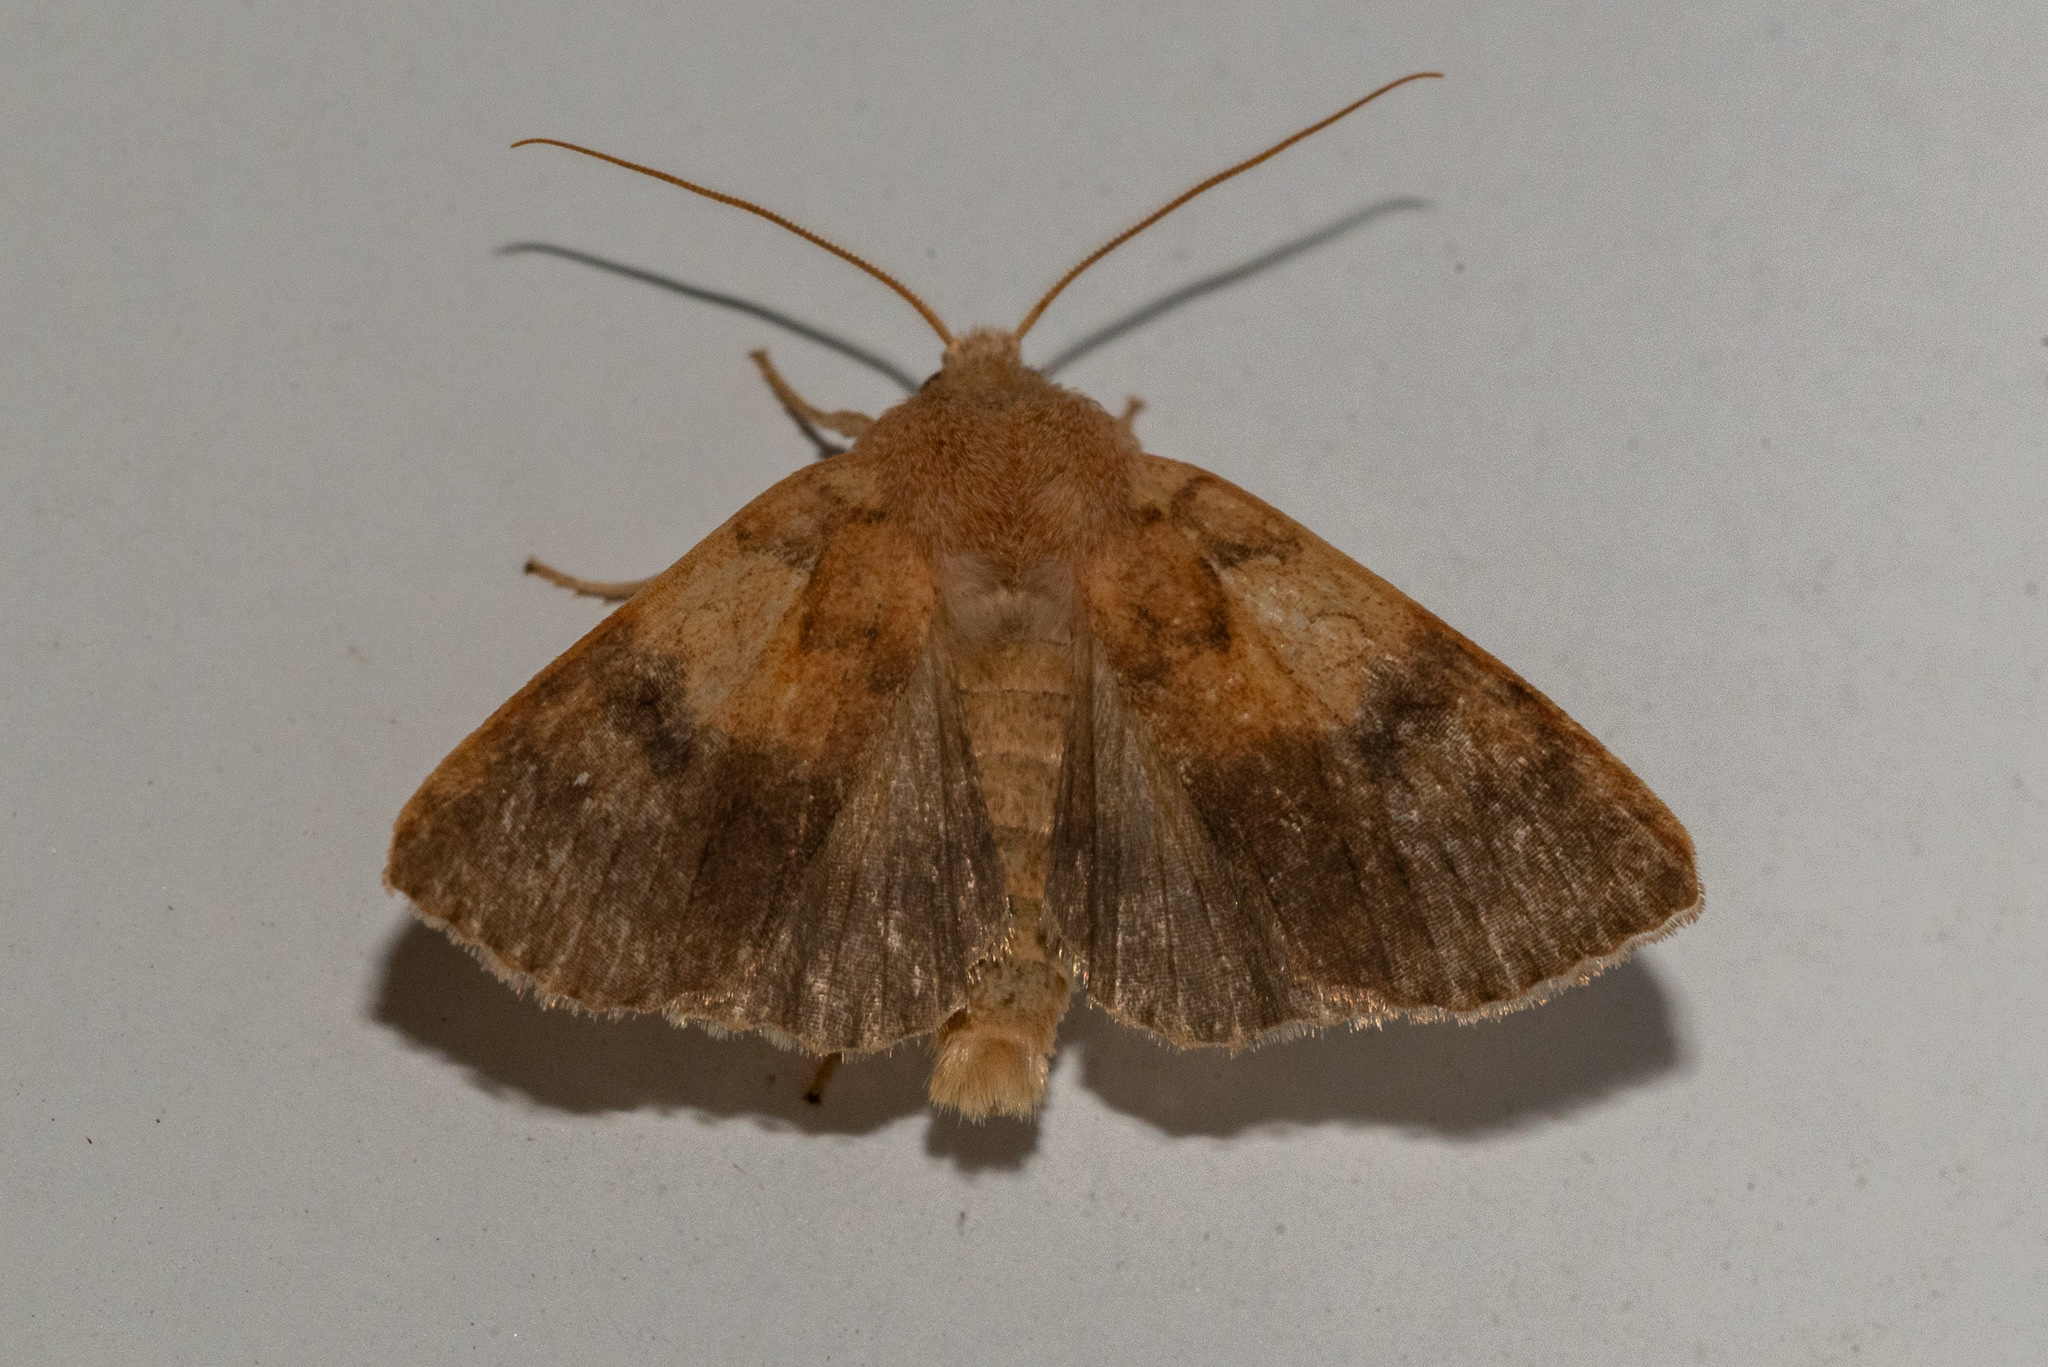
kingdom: Animalia
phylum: Arthropoda
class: Insecta
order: Lepidoptera
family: Noctuidae
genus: Agrochola
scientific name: Agrochola bicolorago
